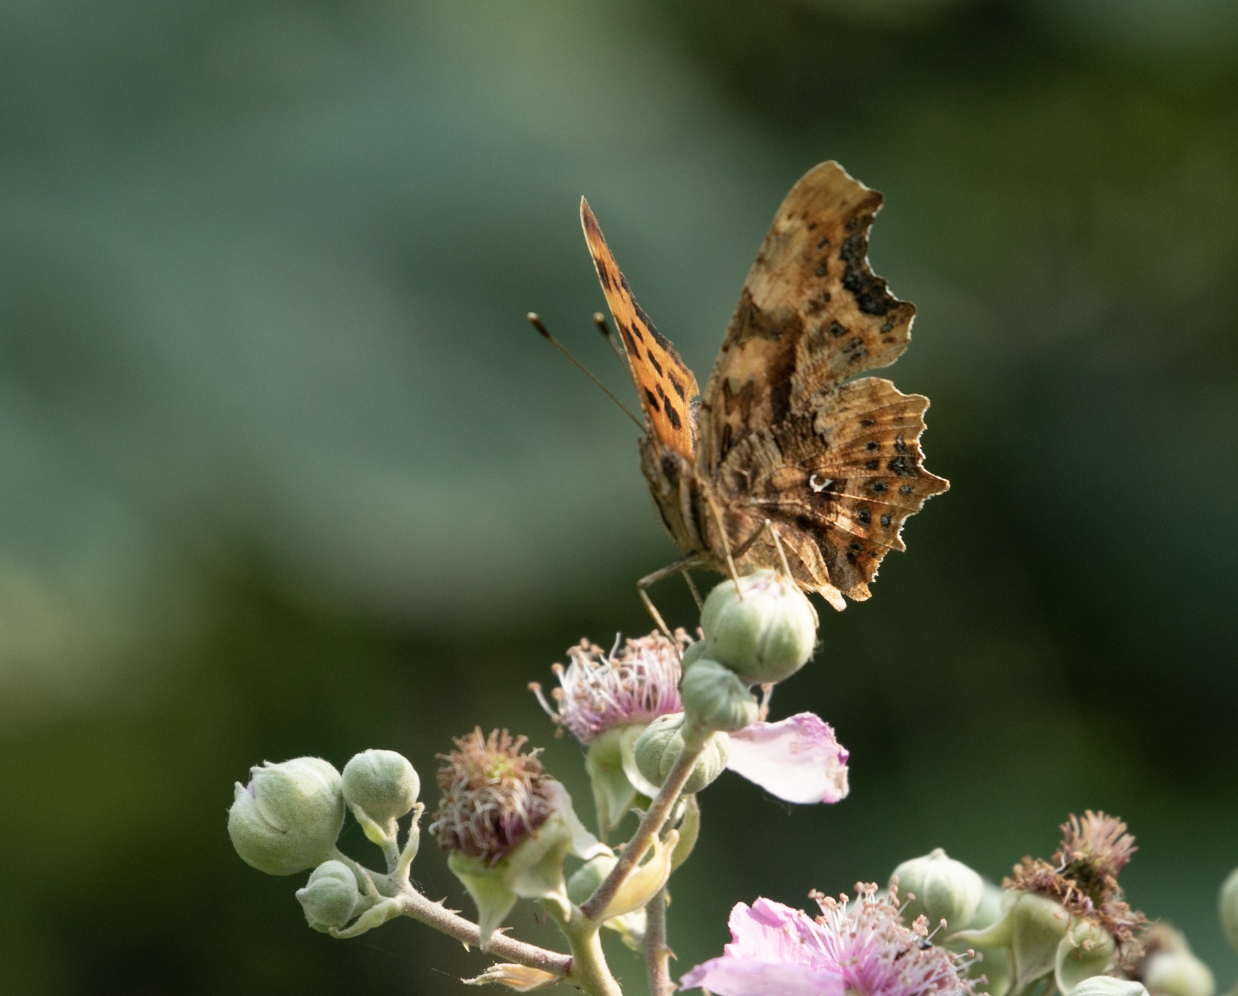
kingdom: Animalia
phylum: Arthropoda
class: Insecta
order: Lepidoptera
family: Nymphalidae
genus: Polygonia
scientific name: Polygonia c-album
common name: Comma
